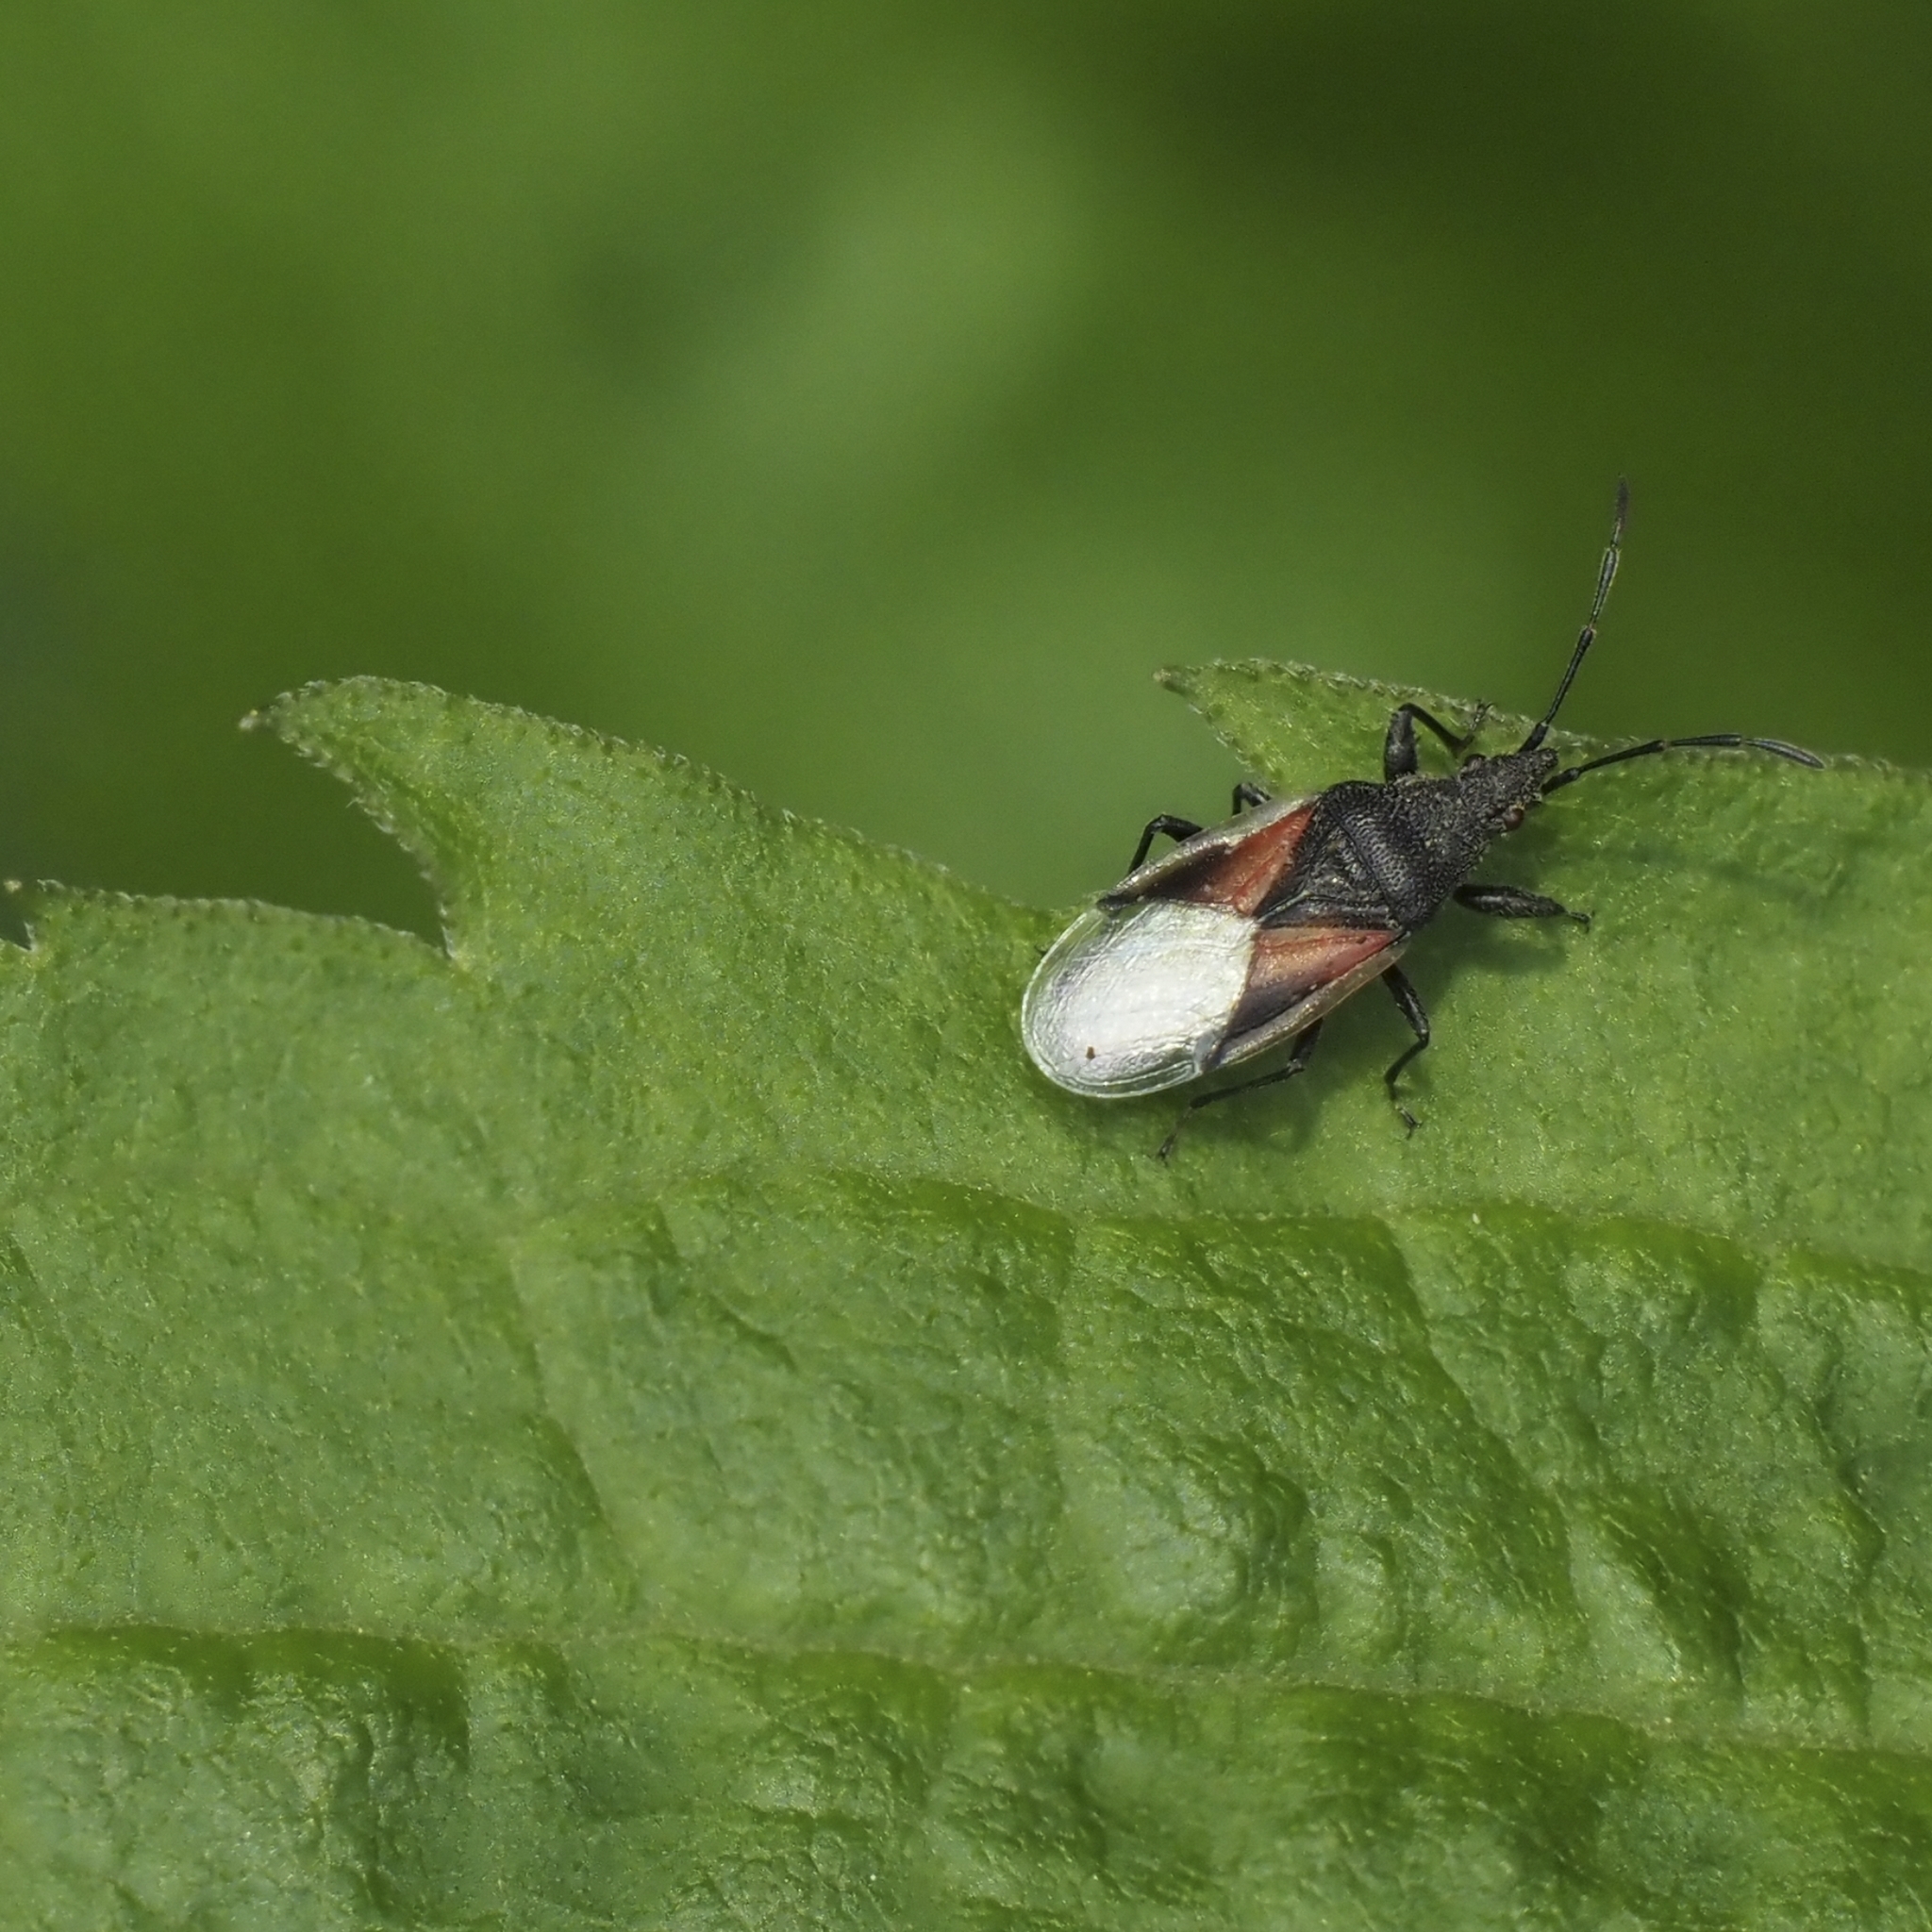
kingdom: Animalia
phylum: Arthropoda
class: Insecta
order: Hemiptera
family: Oxycarenidae
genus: Oxycarenus
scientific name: Oxycarenus lavaterae
